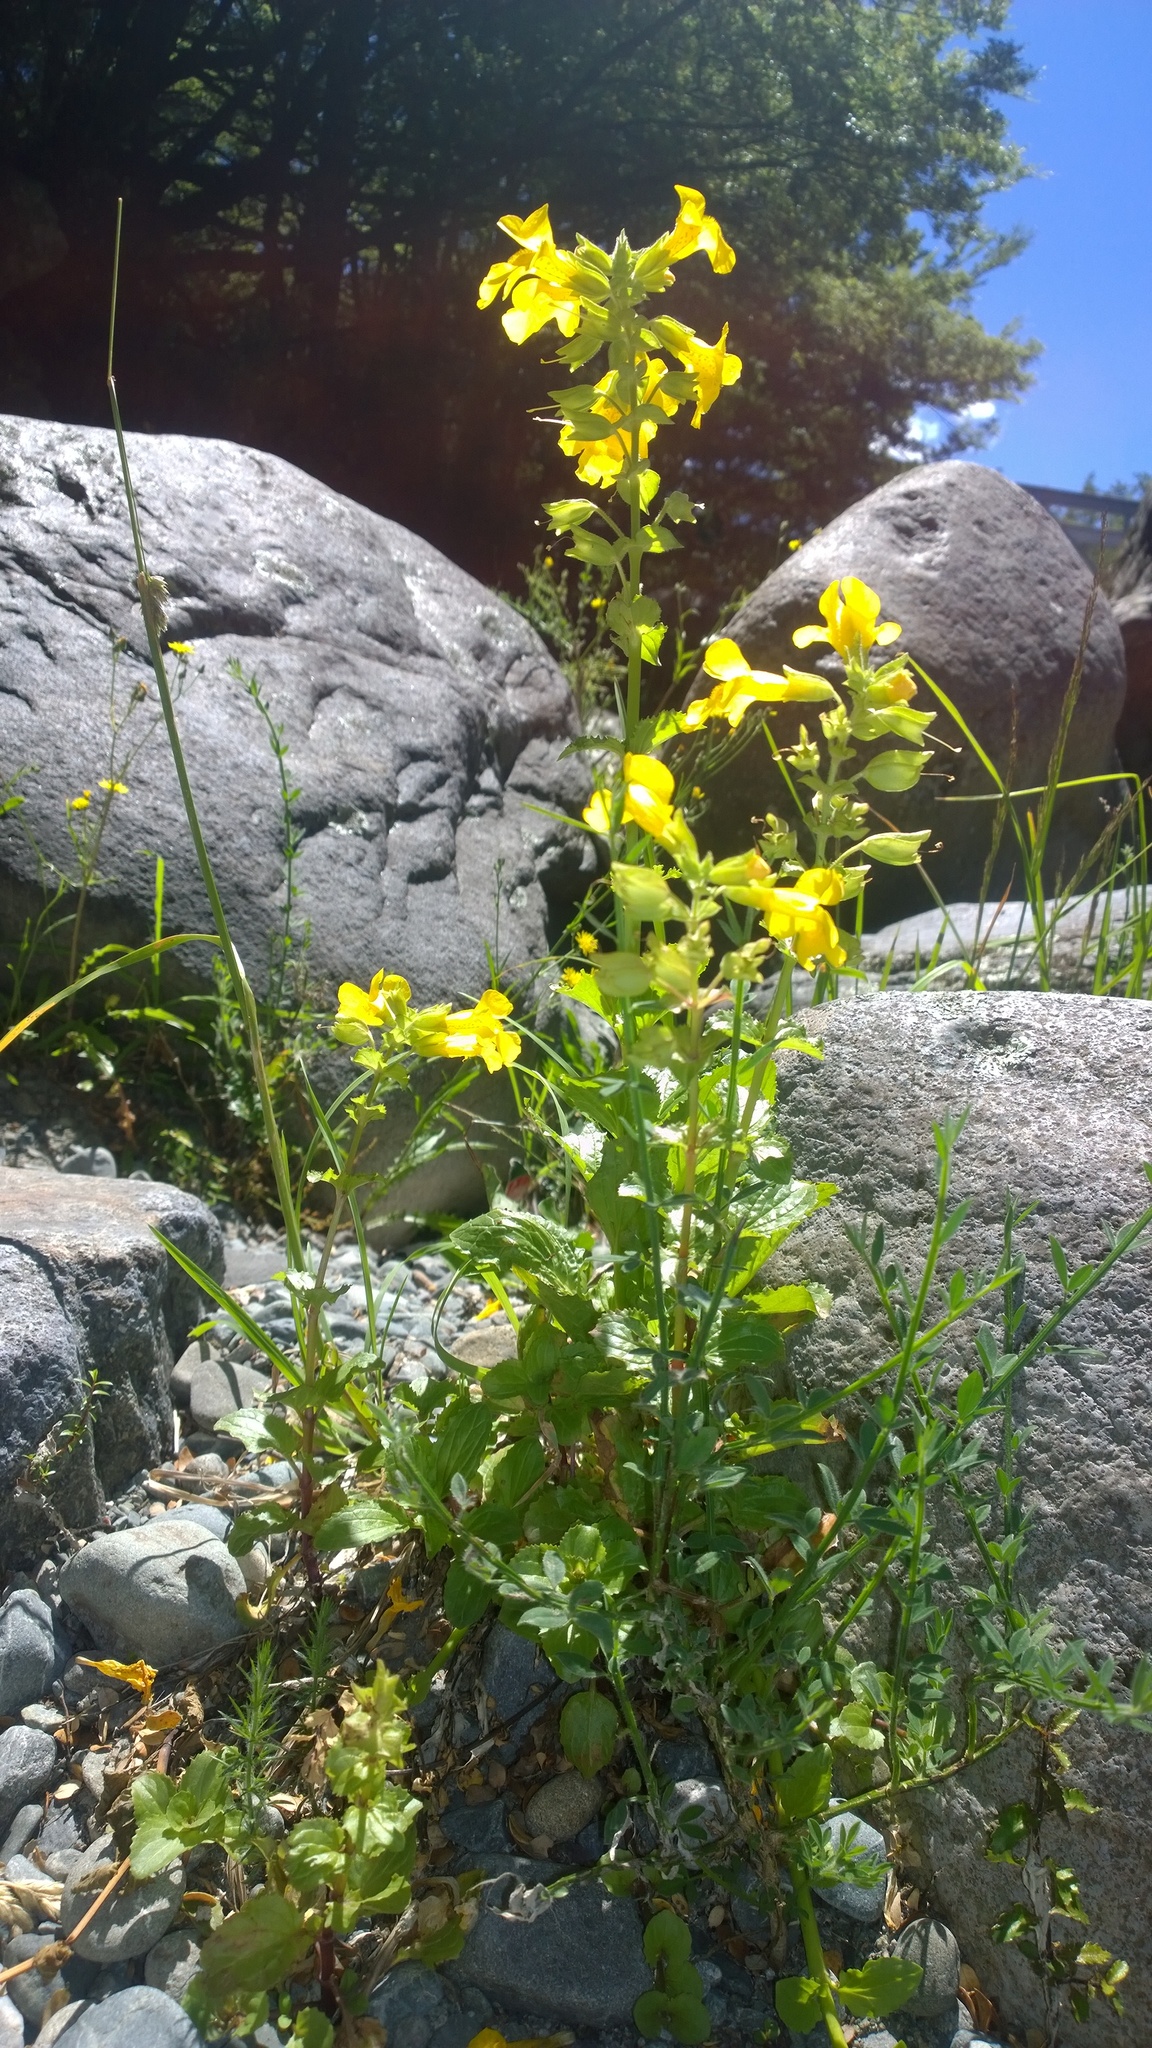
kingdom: Plantae
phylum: Tracheophyta
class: Magnoliopsida
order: Lamiales
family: Phrymaceae
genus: Erythranthe
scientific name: Erythranthe guttata
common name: Monkeyflower
